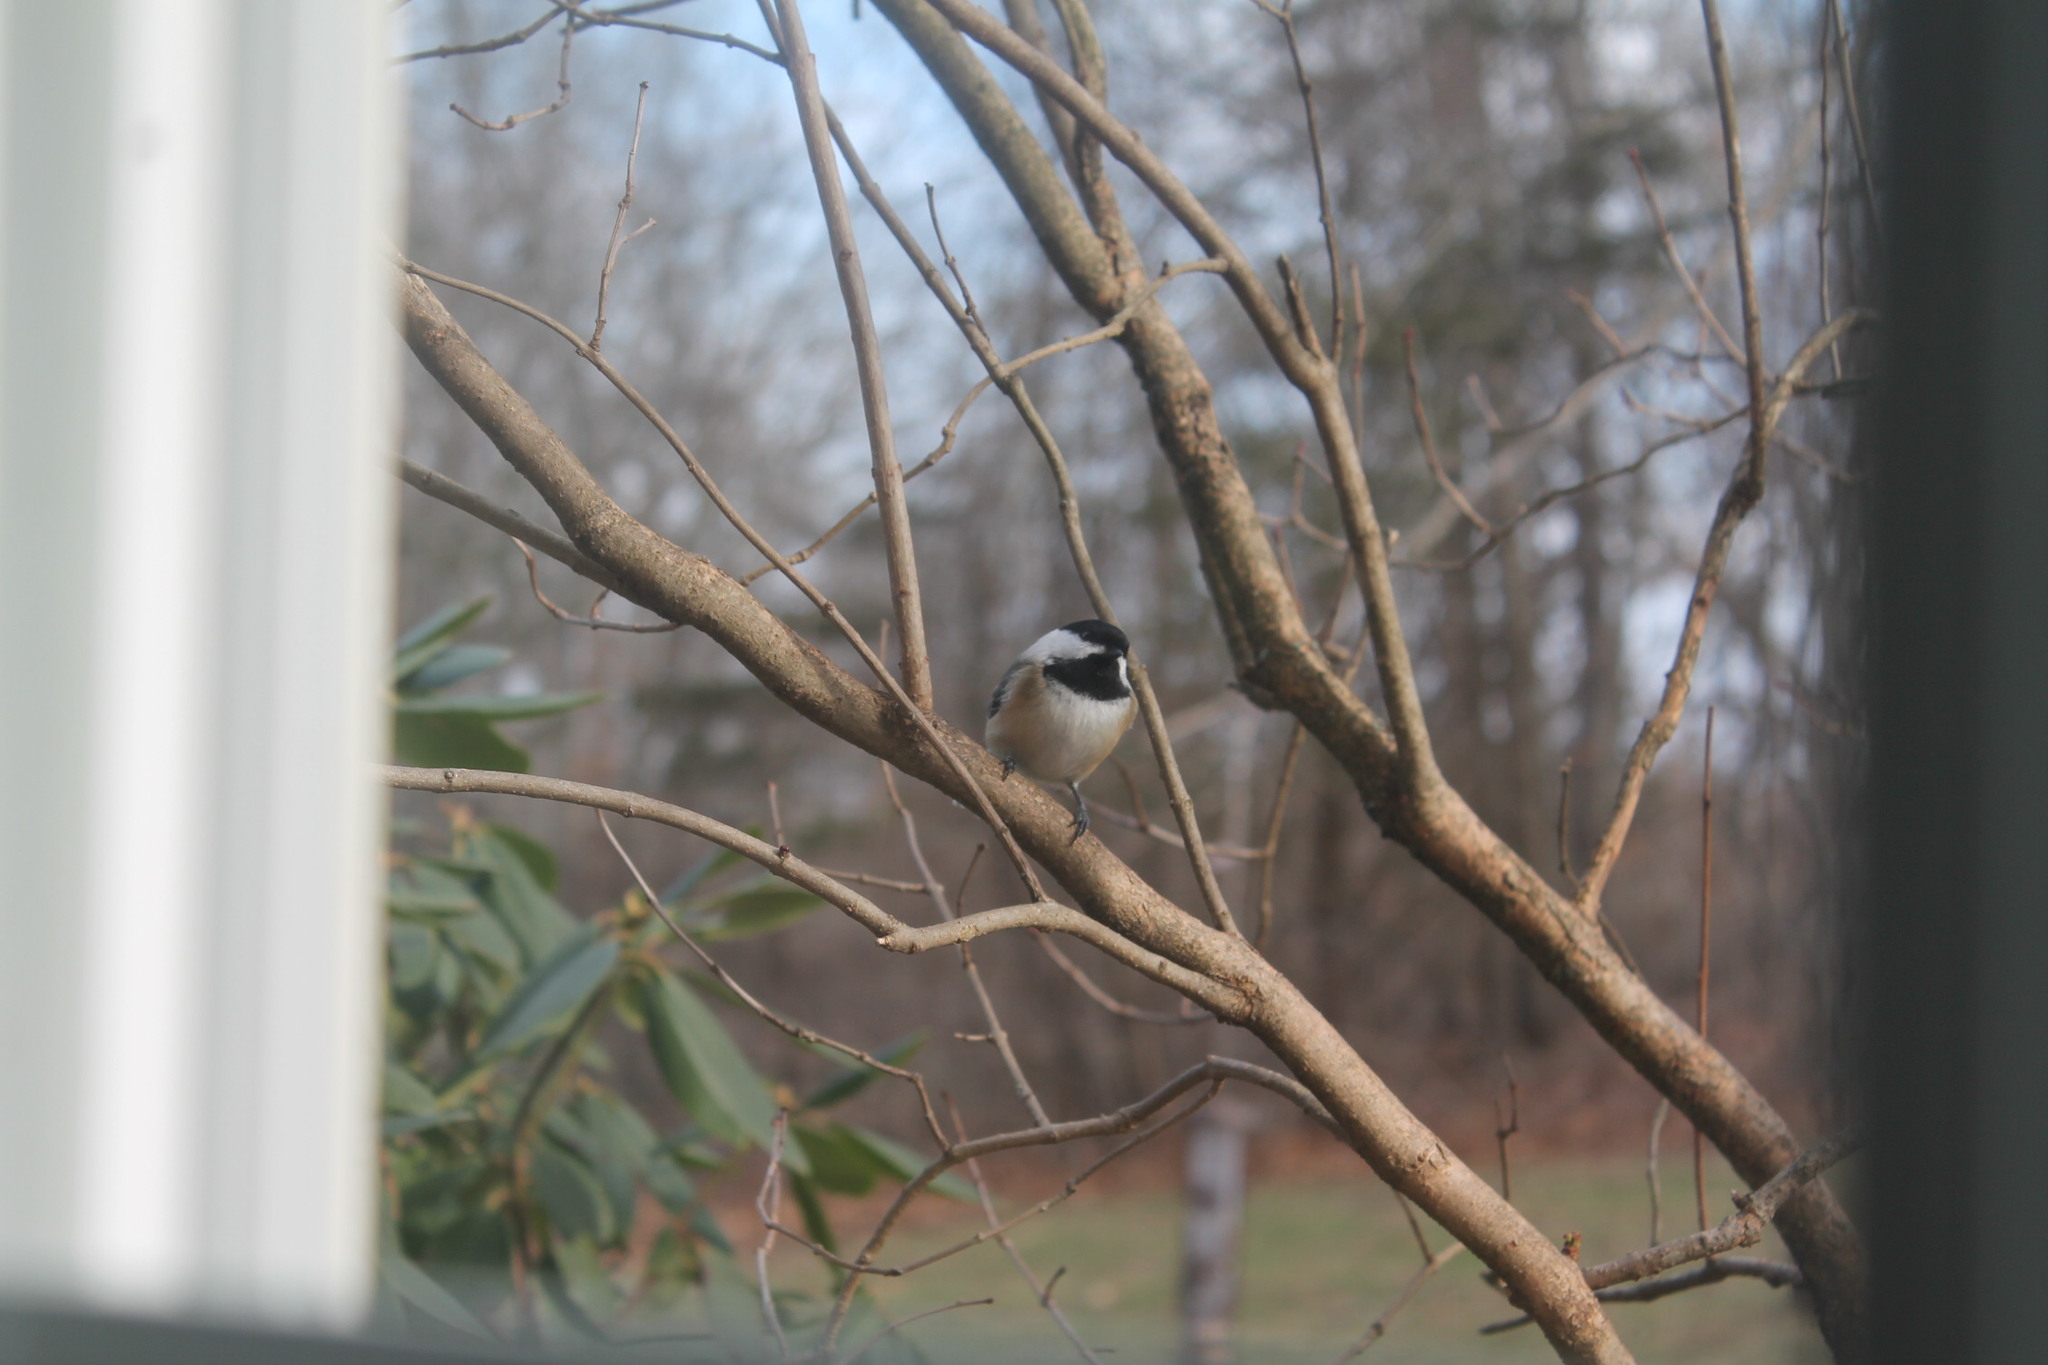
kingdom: Animalia
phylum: Chordata
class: Aves
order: Passeriformes
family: Paridae
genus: Poecile
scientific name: Poecile atricapillus
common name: Black-capped chickadee
